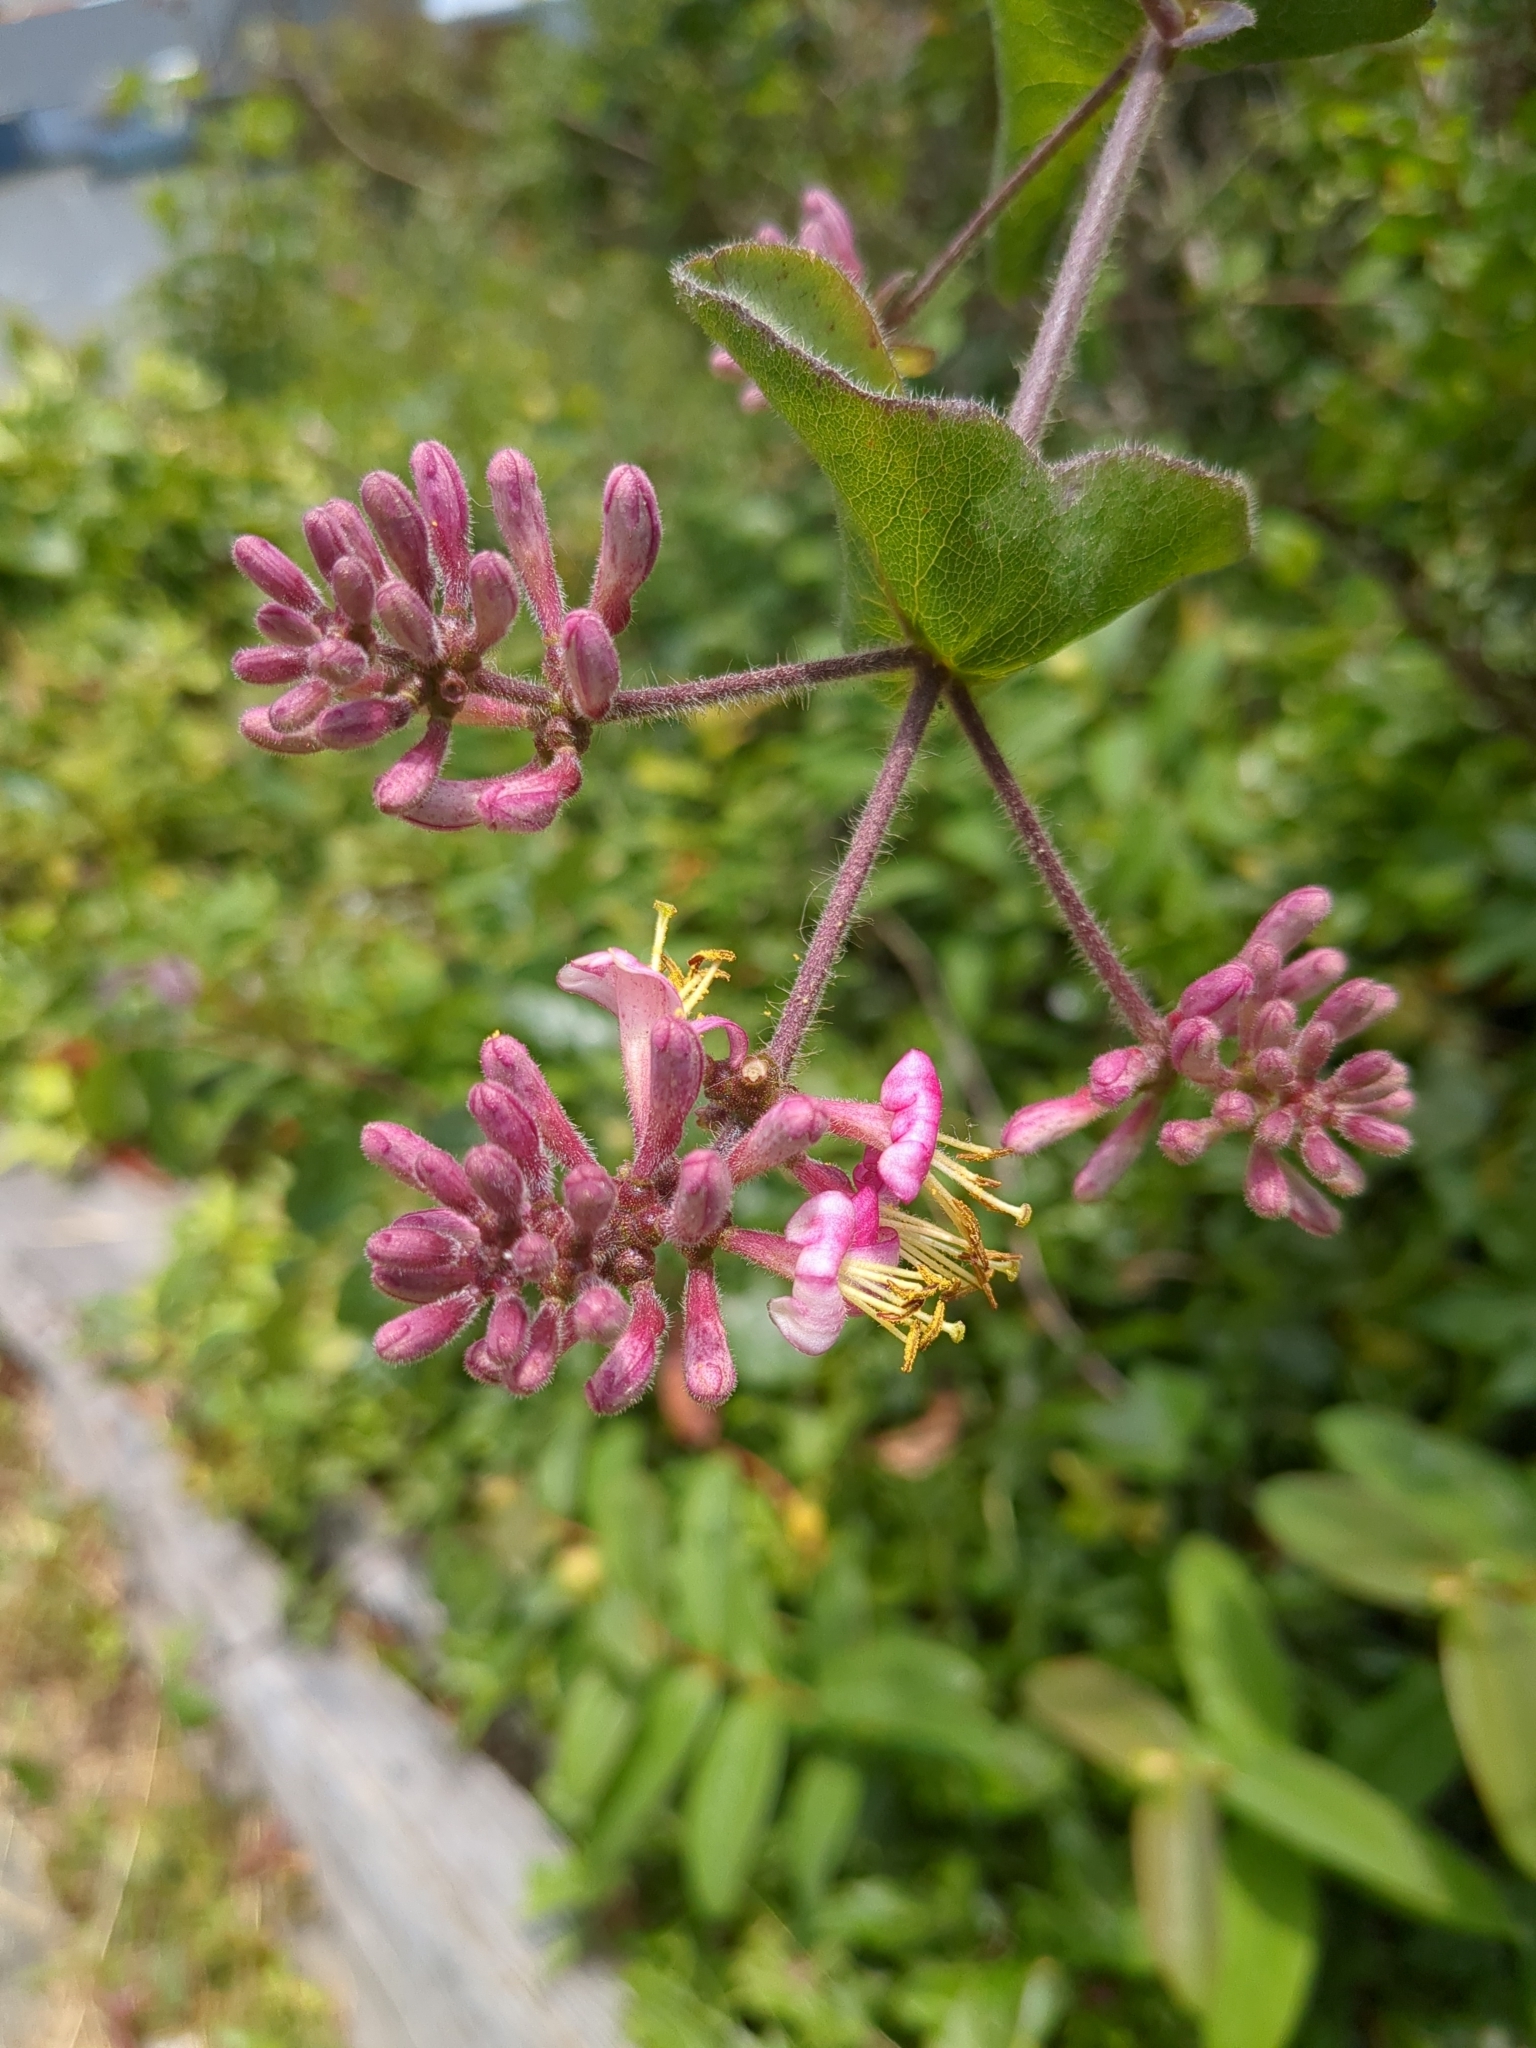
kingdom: Plantae
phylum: Tracheophyta
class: Magnoliopsida
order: Dipsacales
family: Caprifoliaceae
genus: Lonicera
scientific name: Lonicera hispidula
